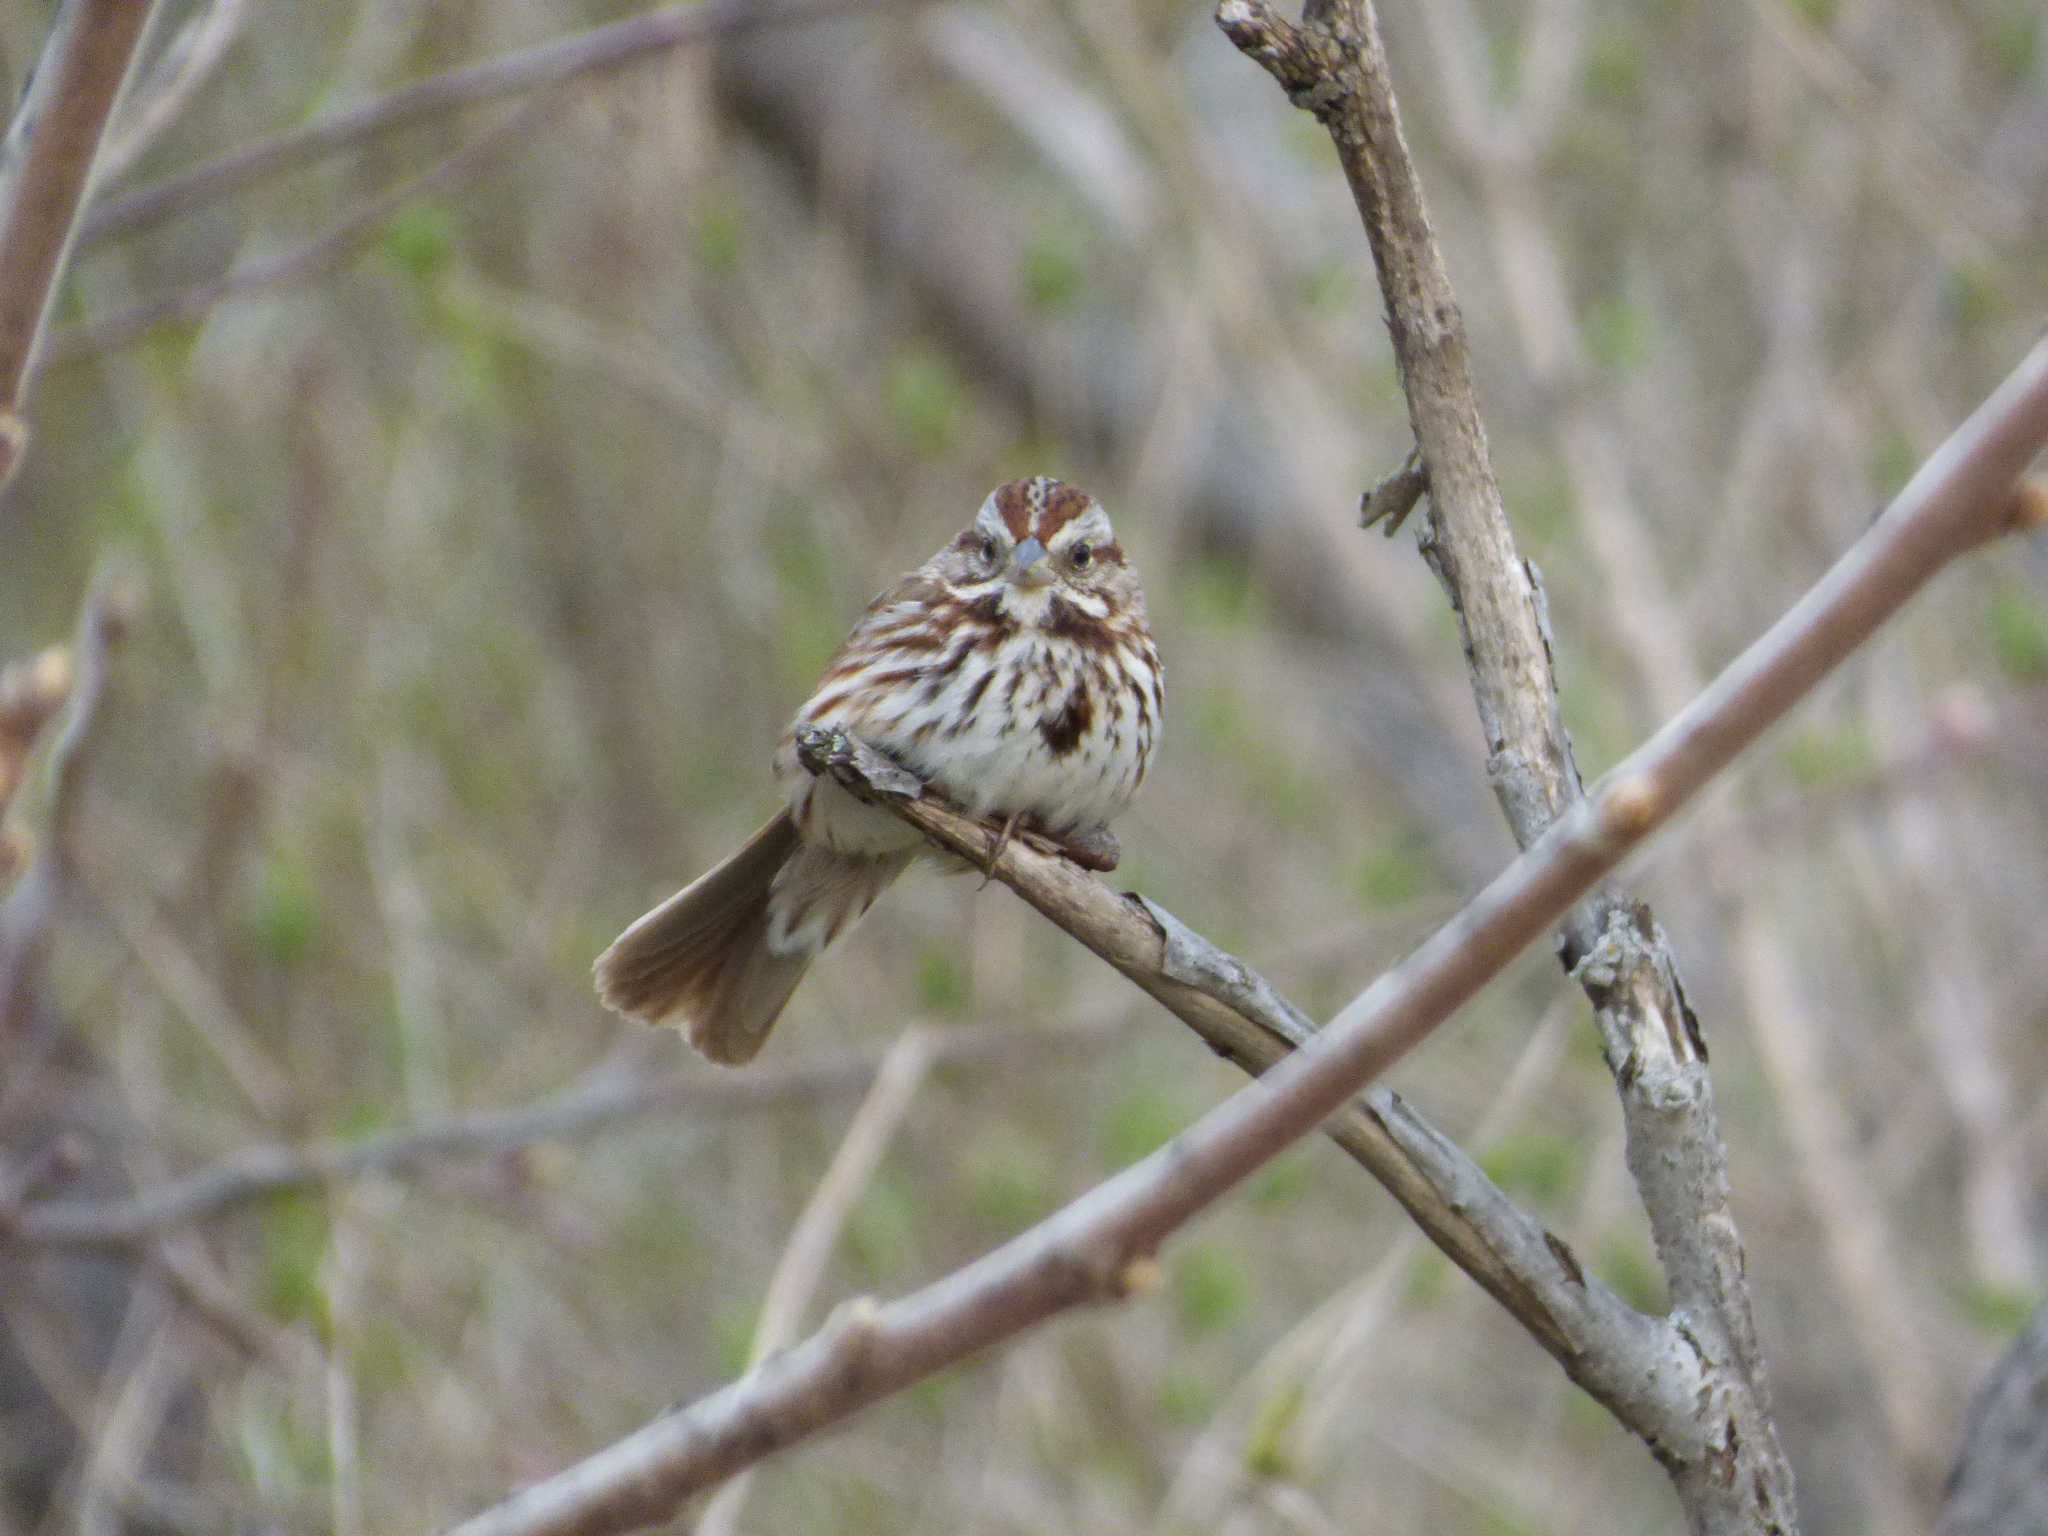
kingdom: Animalia
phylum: Chordata
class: Aves
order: Passeriformes
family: Passerellidae
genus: Melospiza
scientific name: Melospiza melodia
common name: Song sparrow
